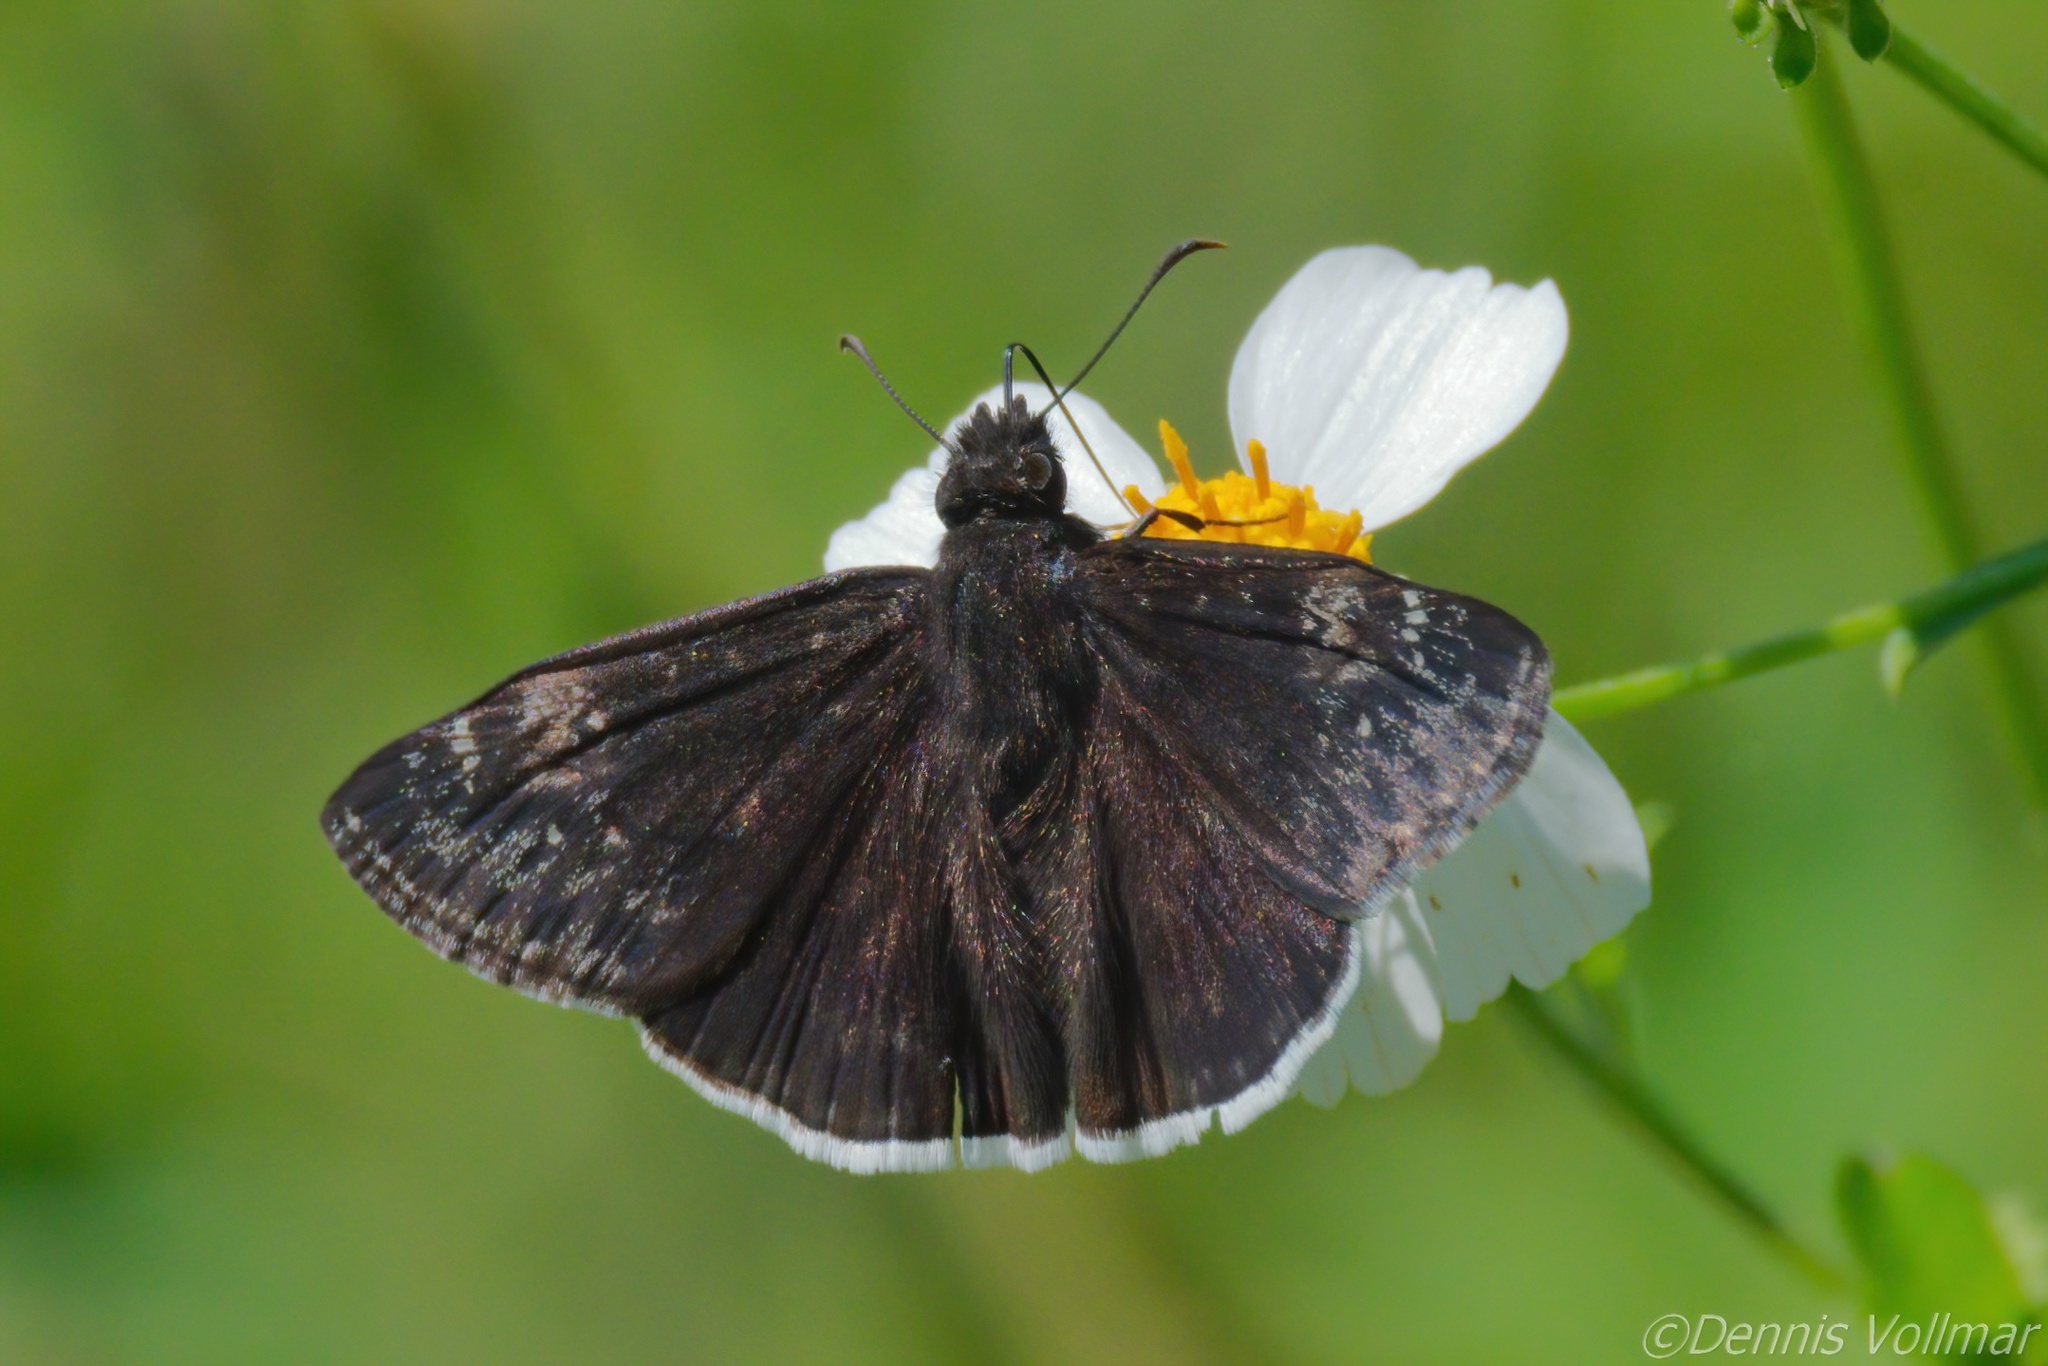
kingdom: Animalia
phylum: Arthropoda
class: Insecta
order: Lepidoptera
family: Hesperiidae
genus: Erynnis
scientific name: Erynnis funeralis
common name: Funereal duskywing
